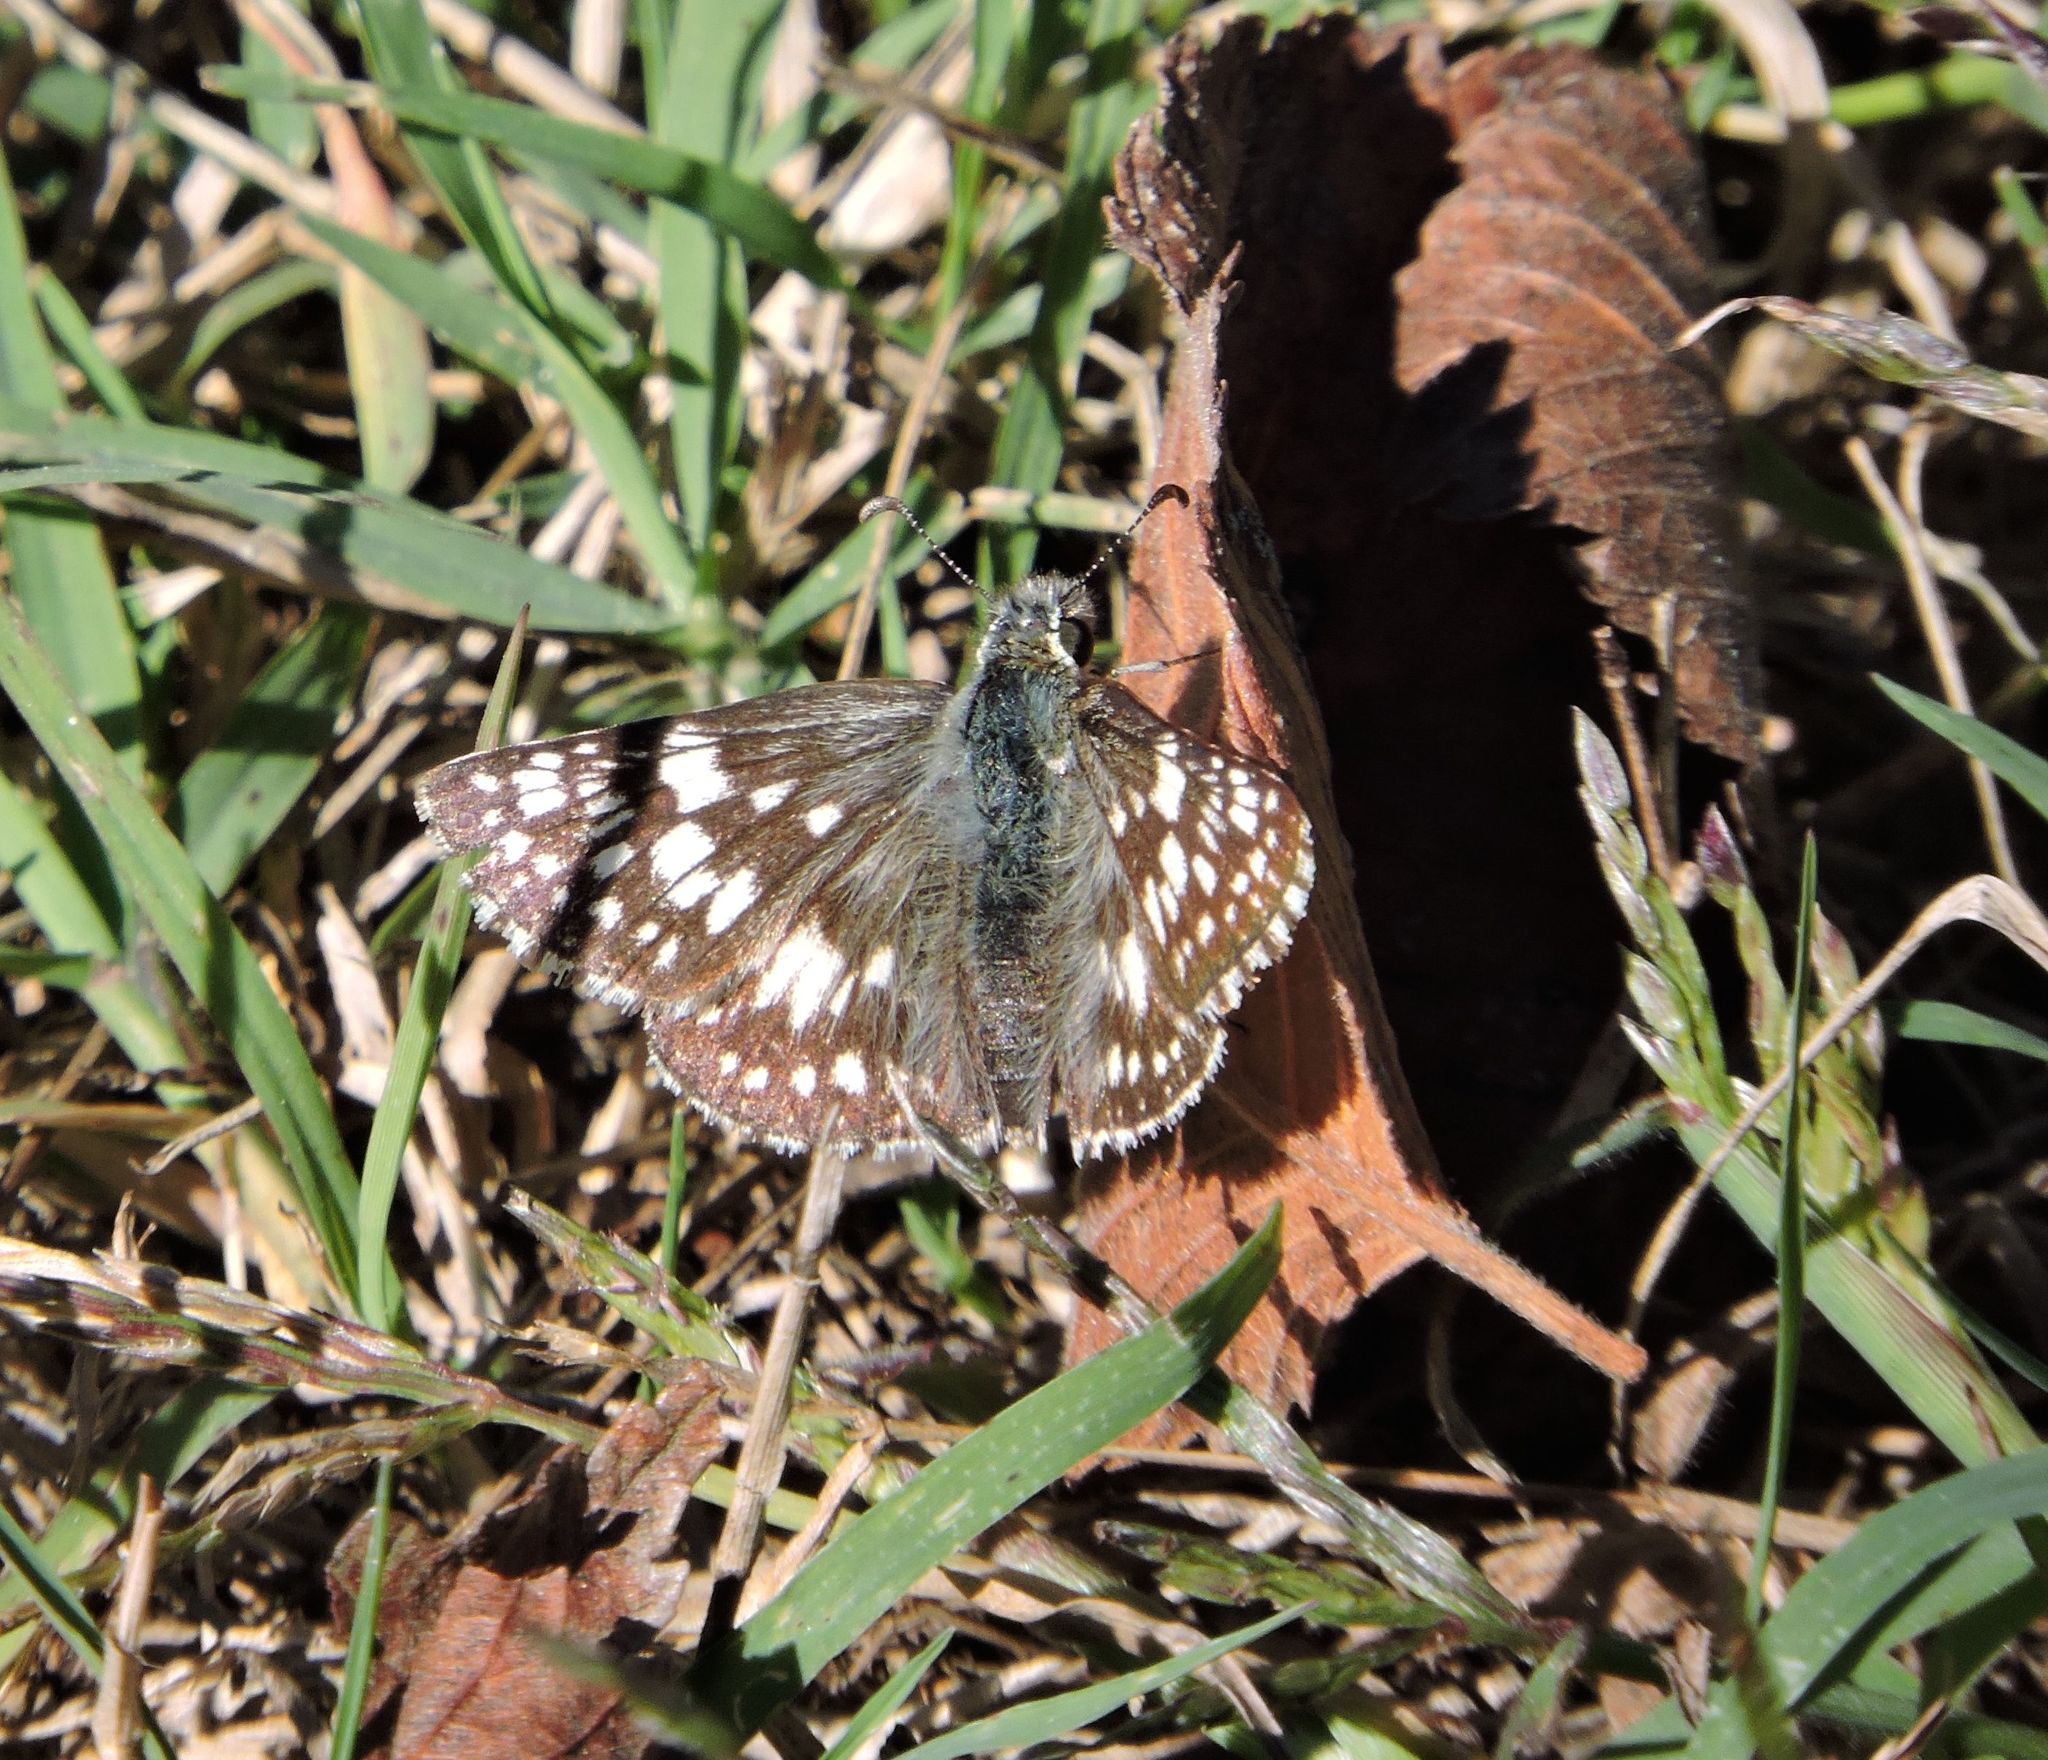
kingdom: Animalia
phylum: Arthropoda
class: Insecta
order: Lepidoptera
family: Hesperiidae
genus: Burnsius
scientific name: Burnsius communis
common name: Common checkered-skipper
